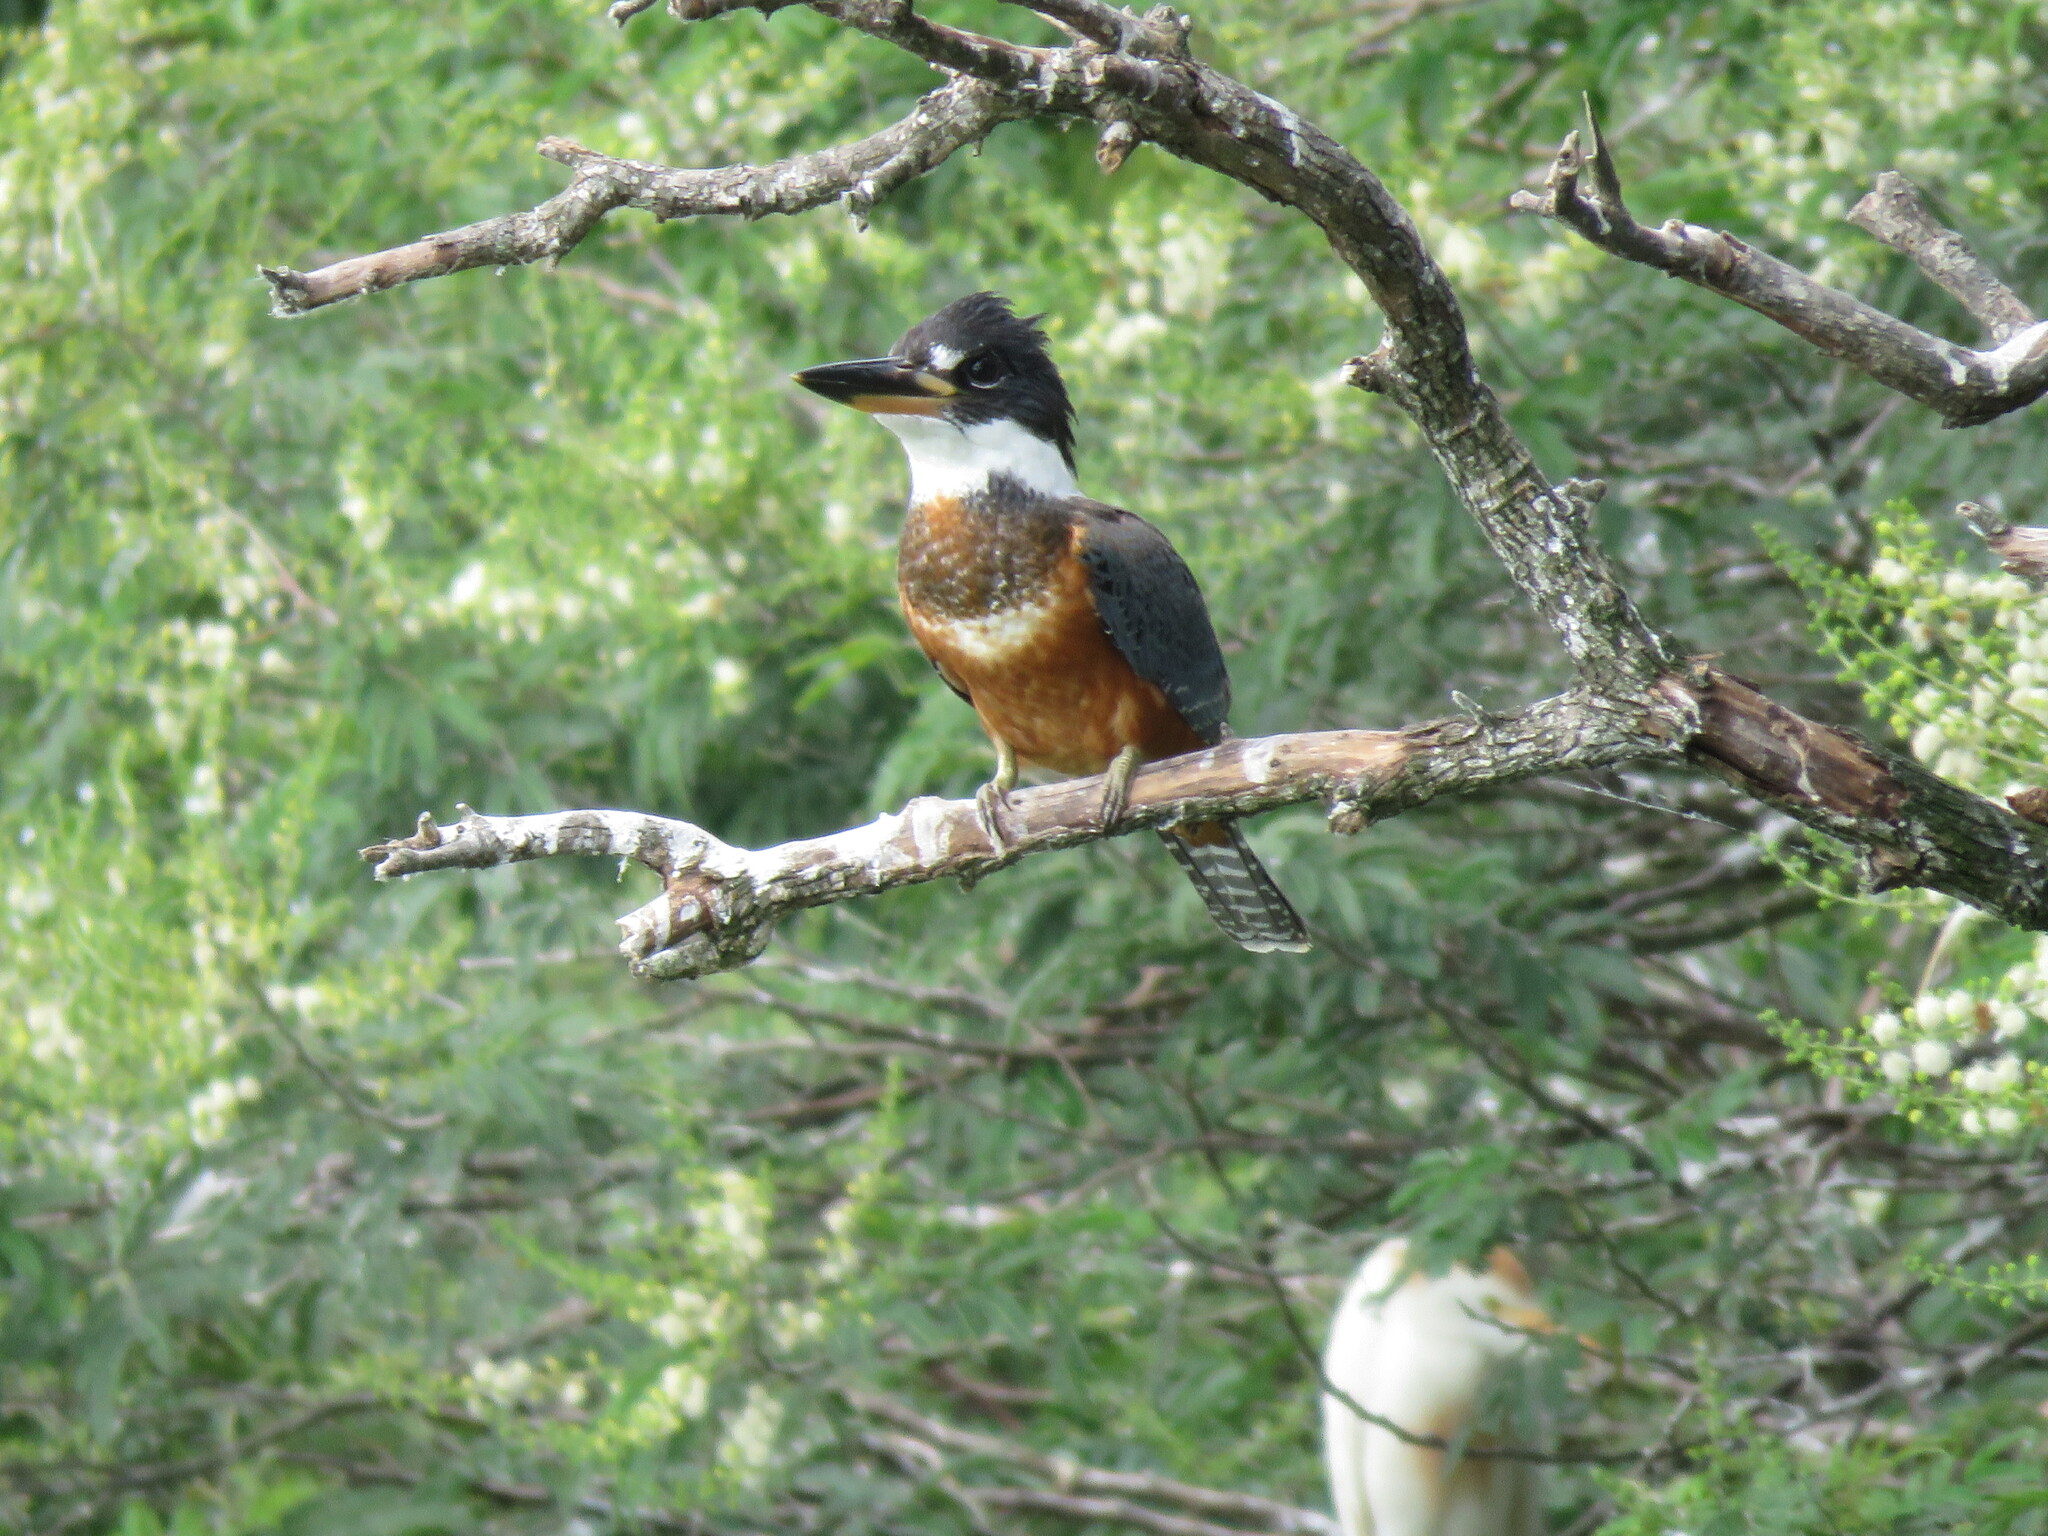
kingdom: Animalia
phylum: Chordata
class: Aves
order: Coraciiformes
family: Alcedinidae
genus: Megaceryle
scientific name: Megaceryle torquata
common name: Ringed kingfisher
